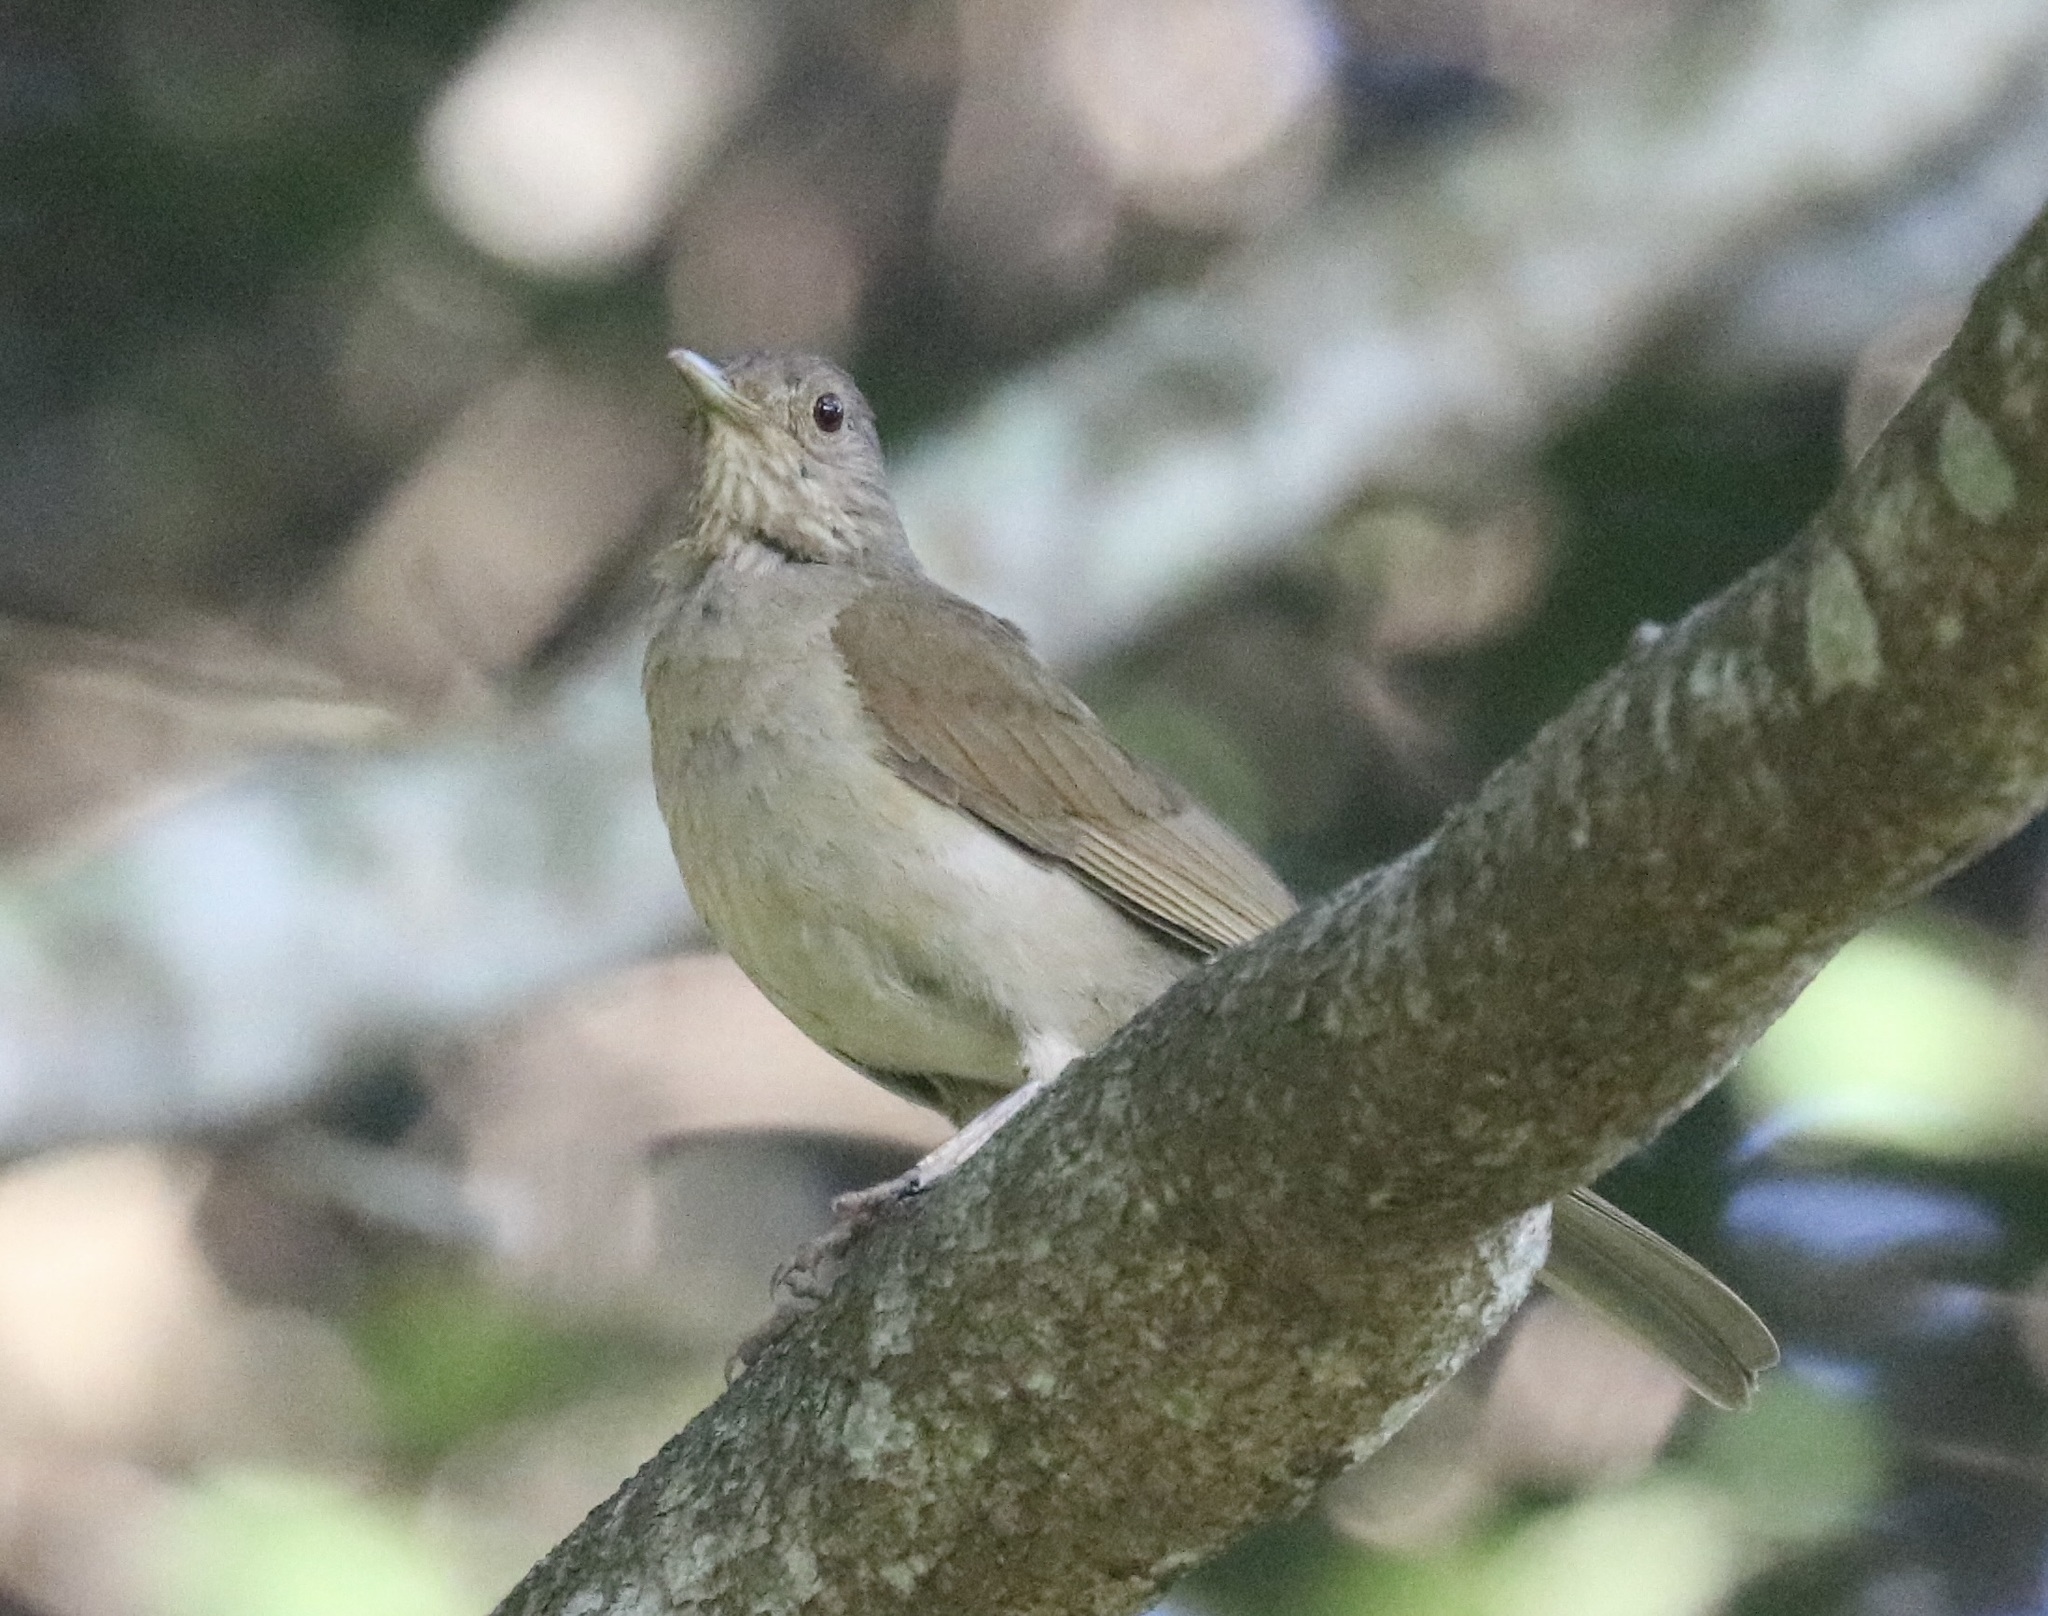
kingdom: Animalia
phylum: Chordata
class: Aves
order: Passeriformes
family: Turdidae
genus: Turdus
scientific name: Turdus leucomelas
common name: Pale-breasted thrush
